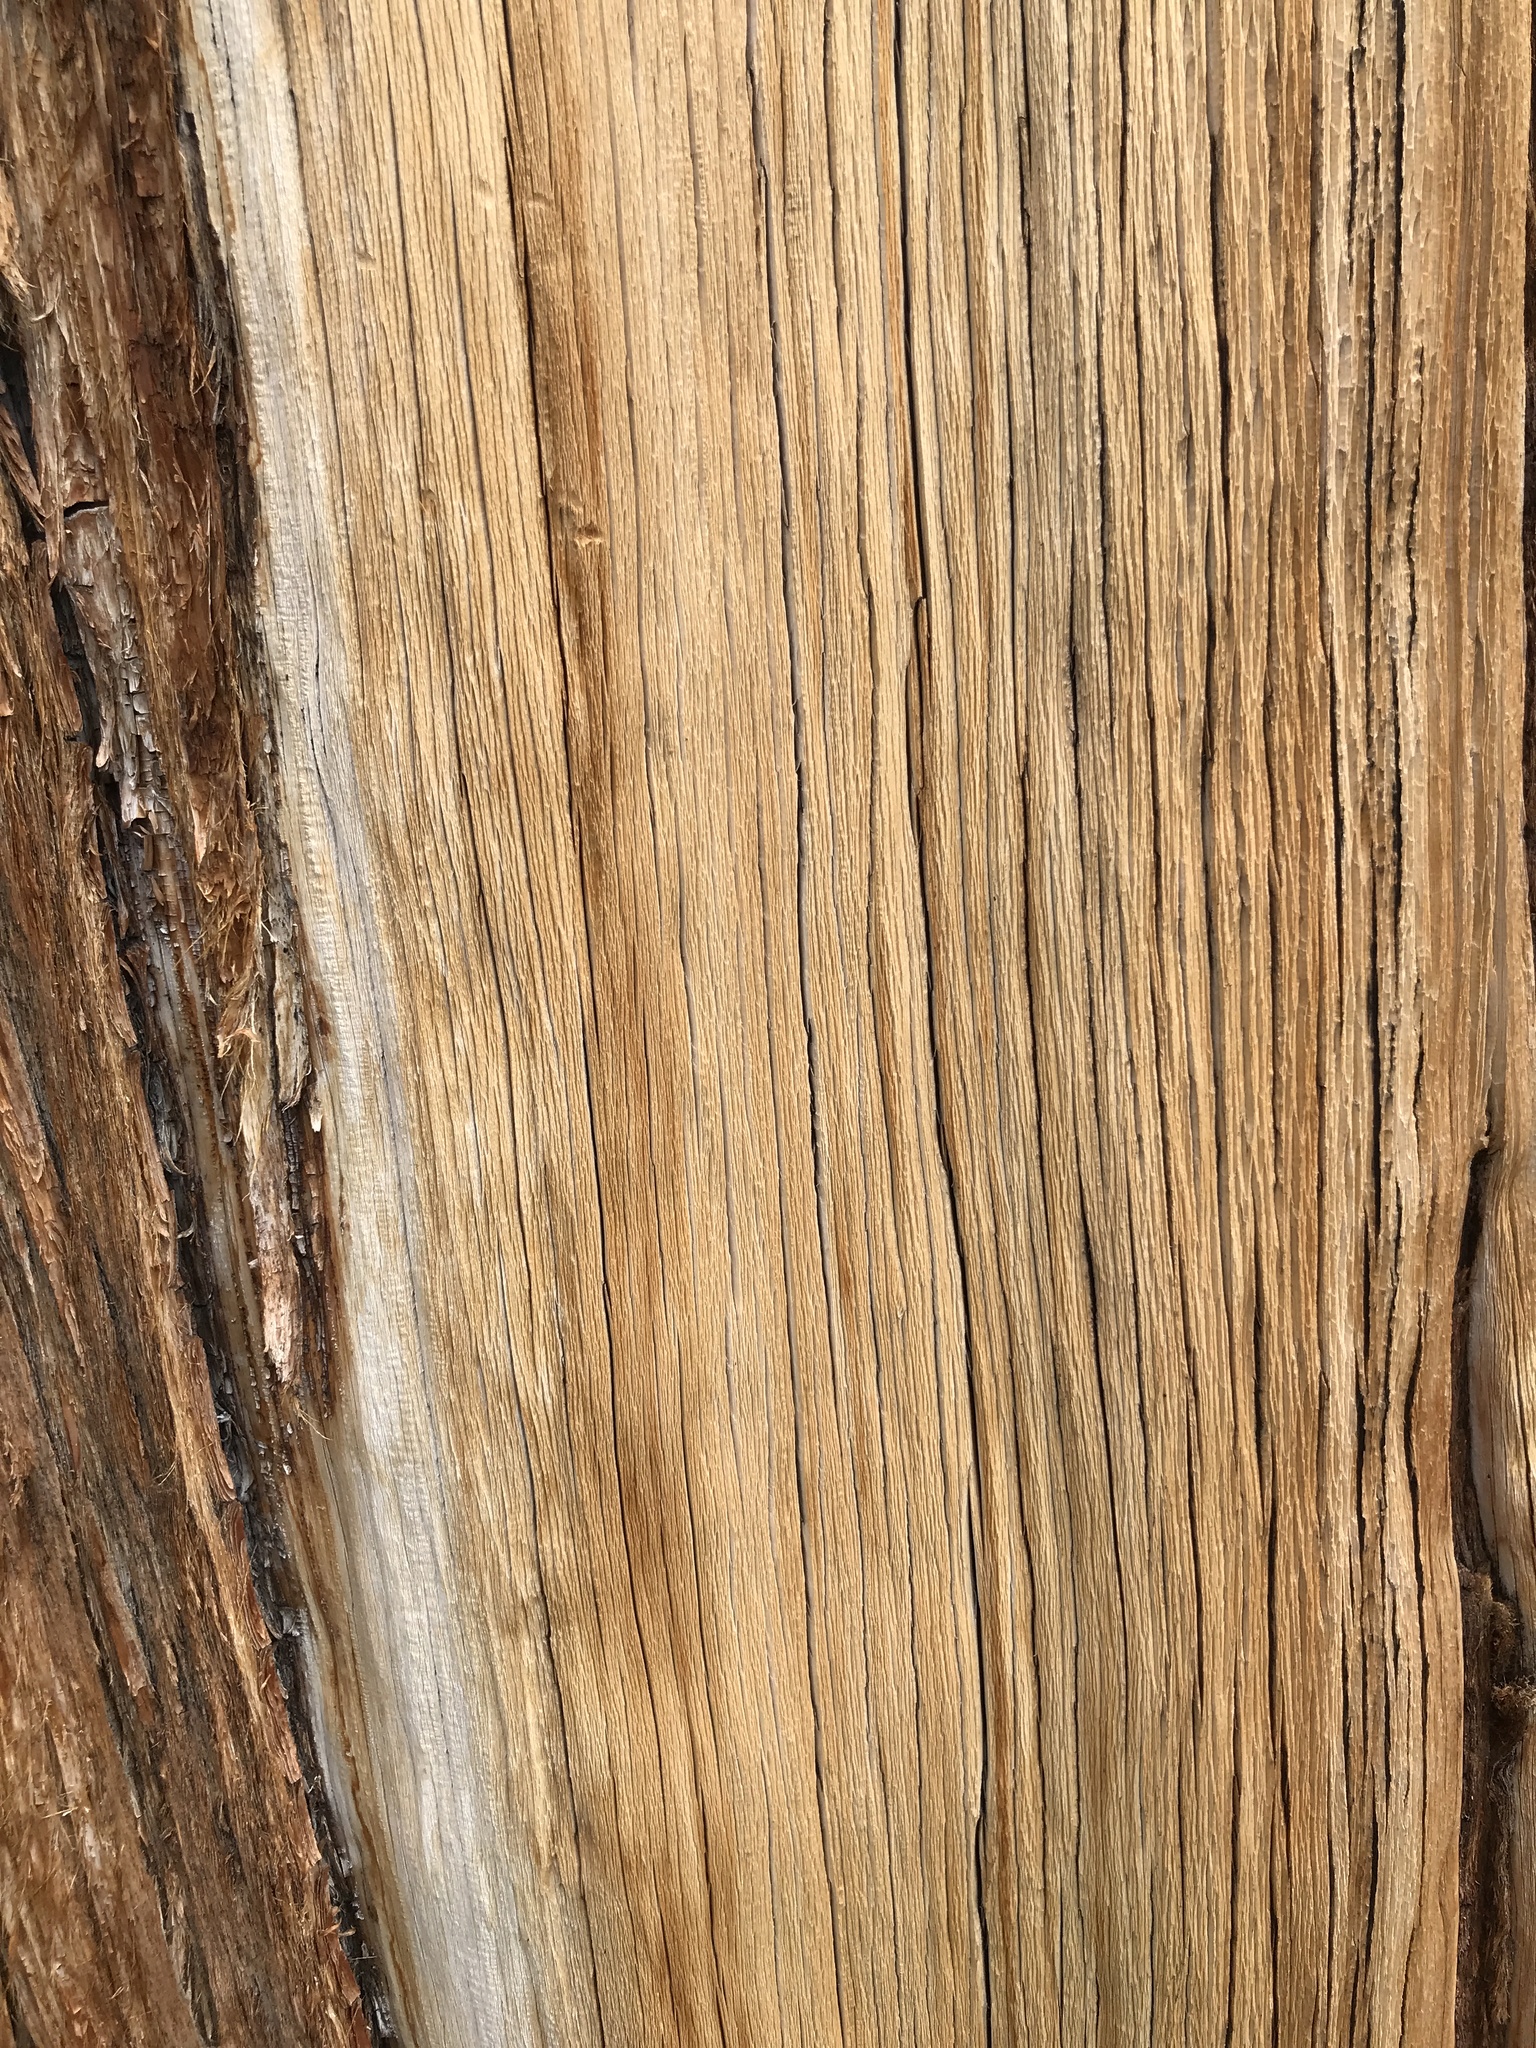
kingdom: Plantae
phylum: Tracheophyta
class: Pinopsida
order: Pinales
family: Cupressaceae
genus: Juniperus
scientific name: Juniperus occidentalis
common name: Western juniper
